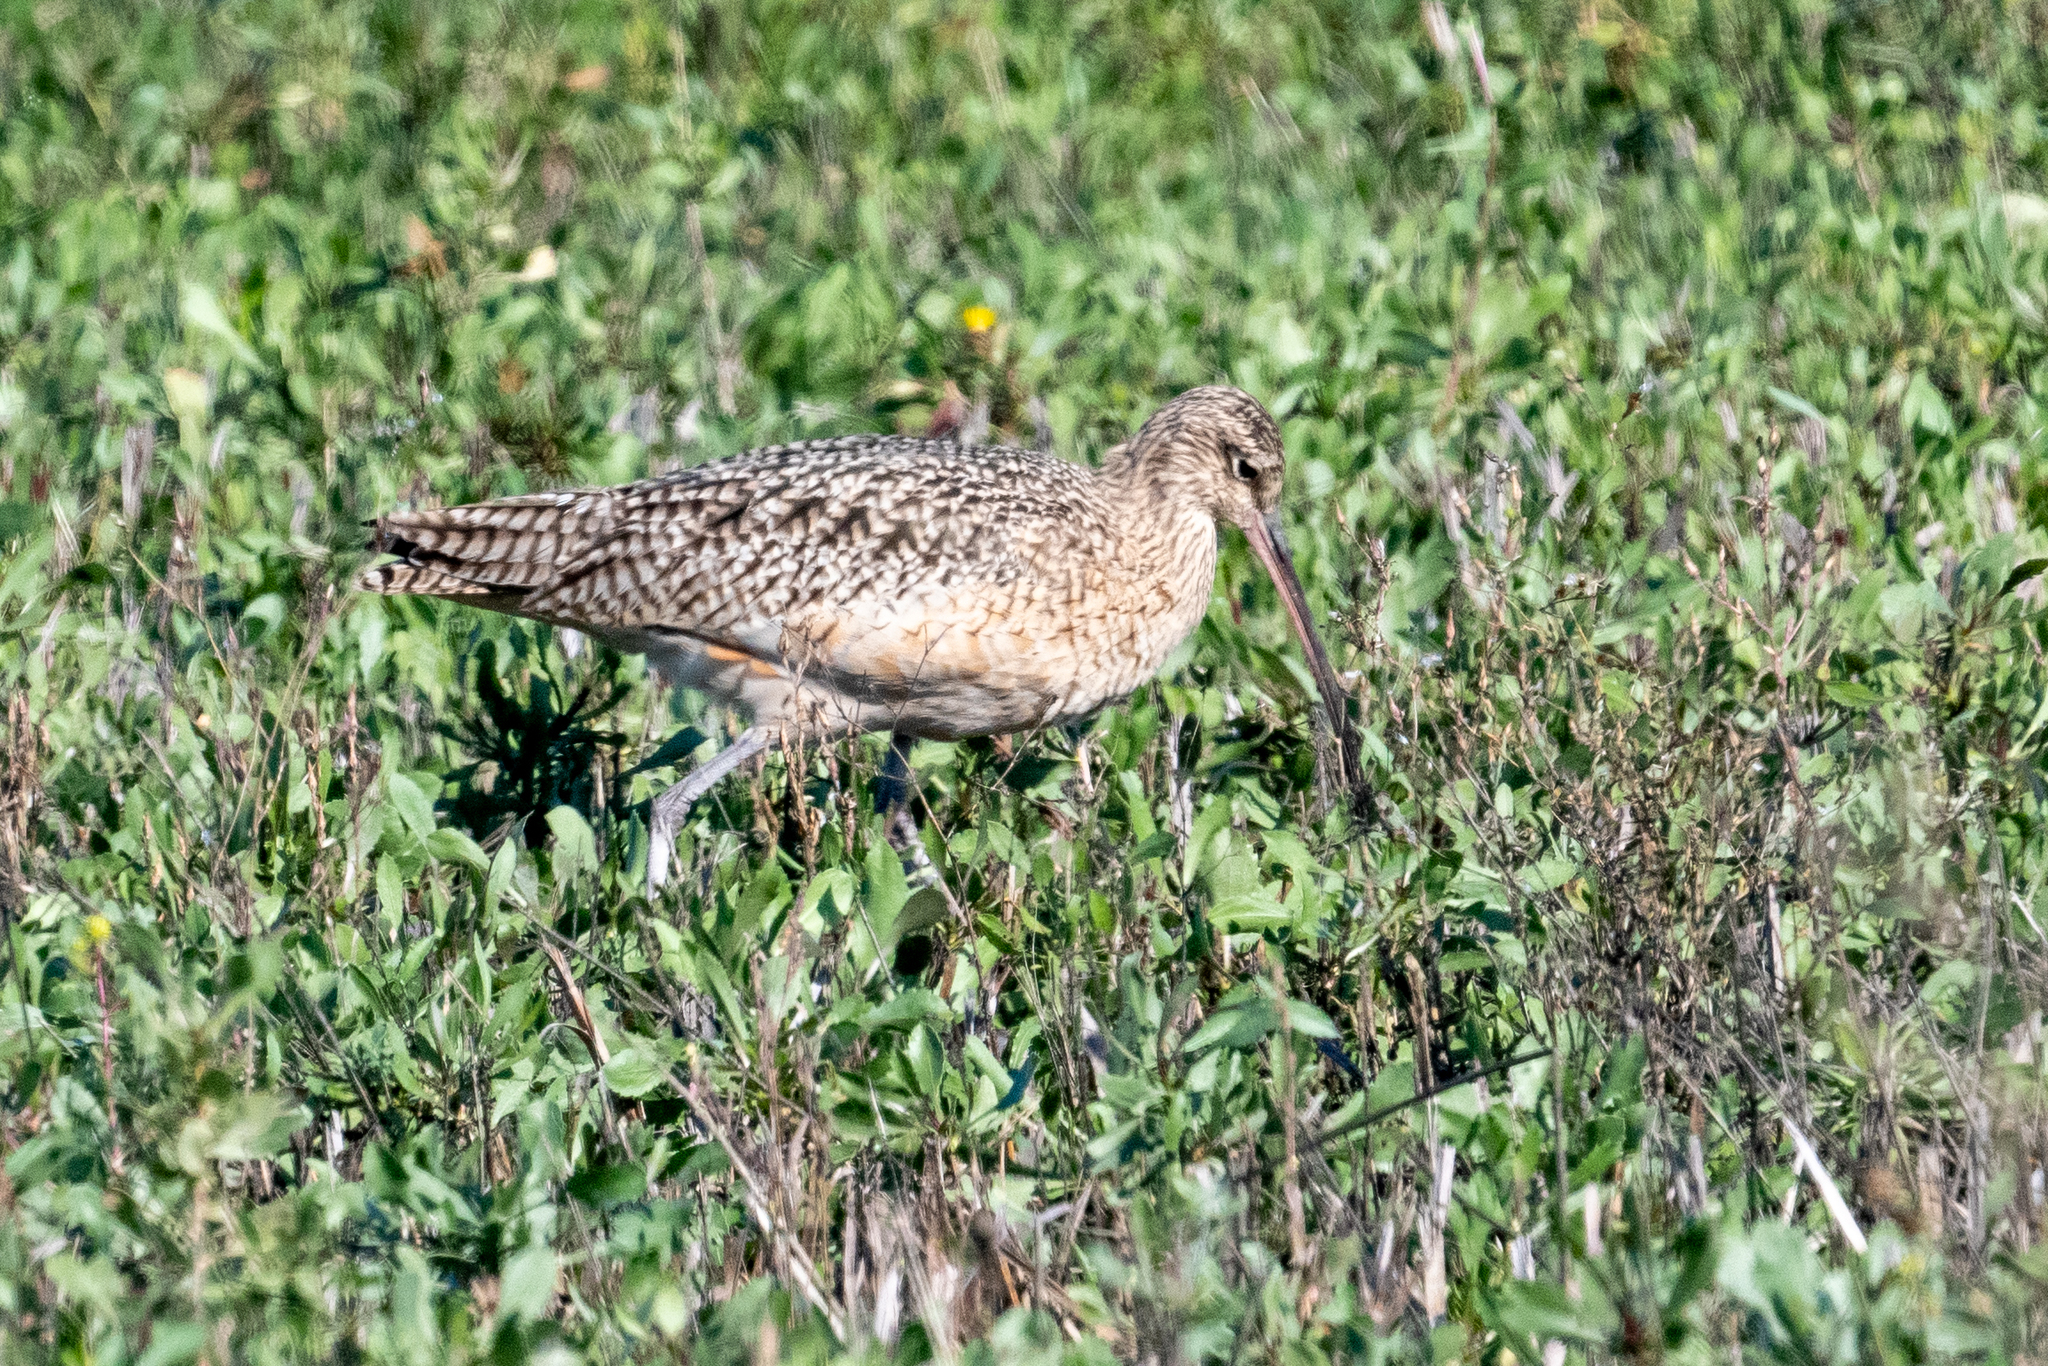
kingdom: Animalia
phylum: Chordata
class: Aves
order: Charadriiformes
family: Scolopacidae
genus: Numenius
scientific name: Numenius americanus
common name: Long-billed curlew
